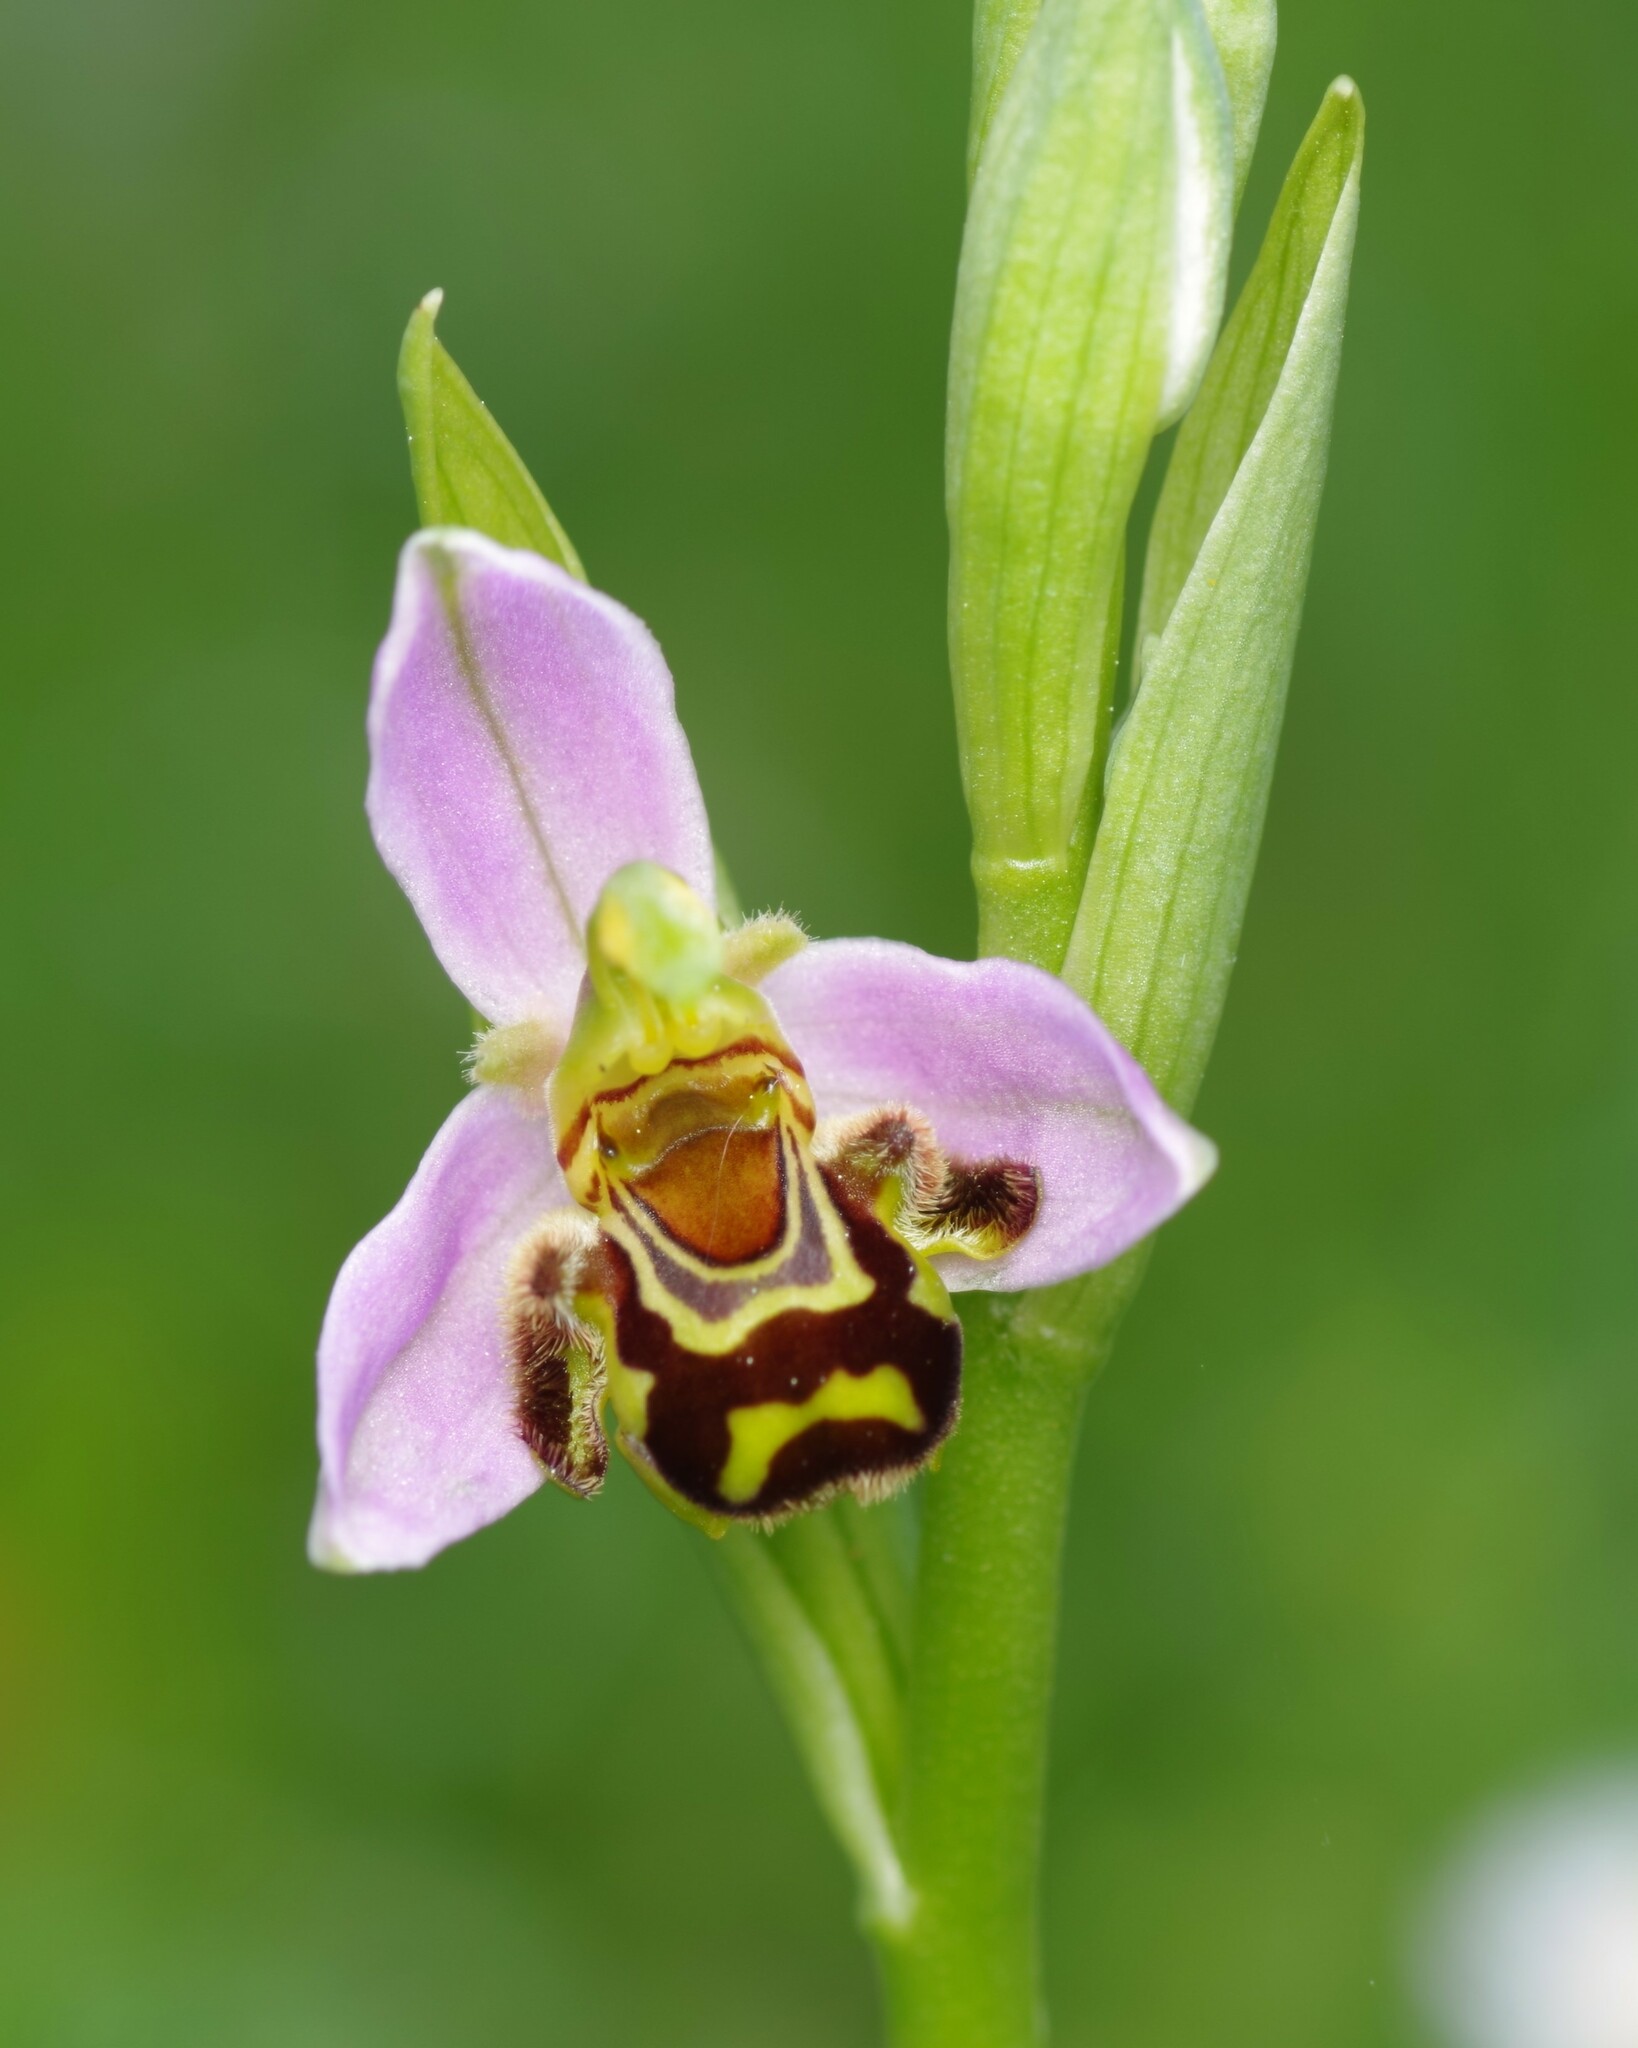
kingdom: Plantae
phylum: Tracheophyta
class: Liliopsida
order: Asparagales
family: Orchidaceae
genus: Ophrys
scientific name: Ophrys apifera
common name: Bee orchid
